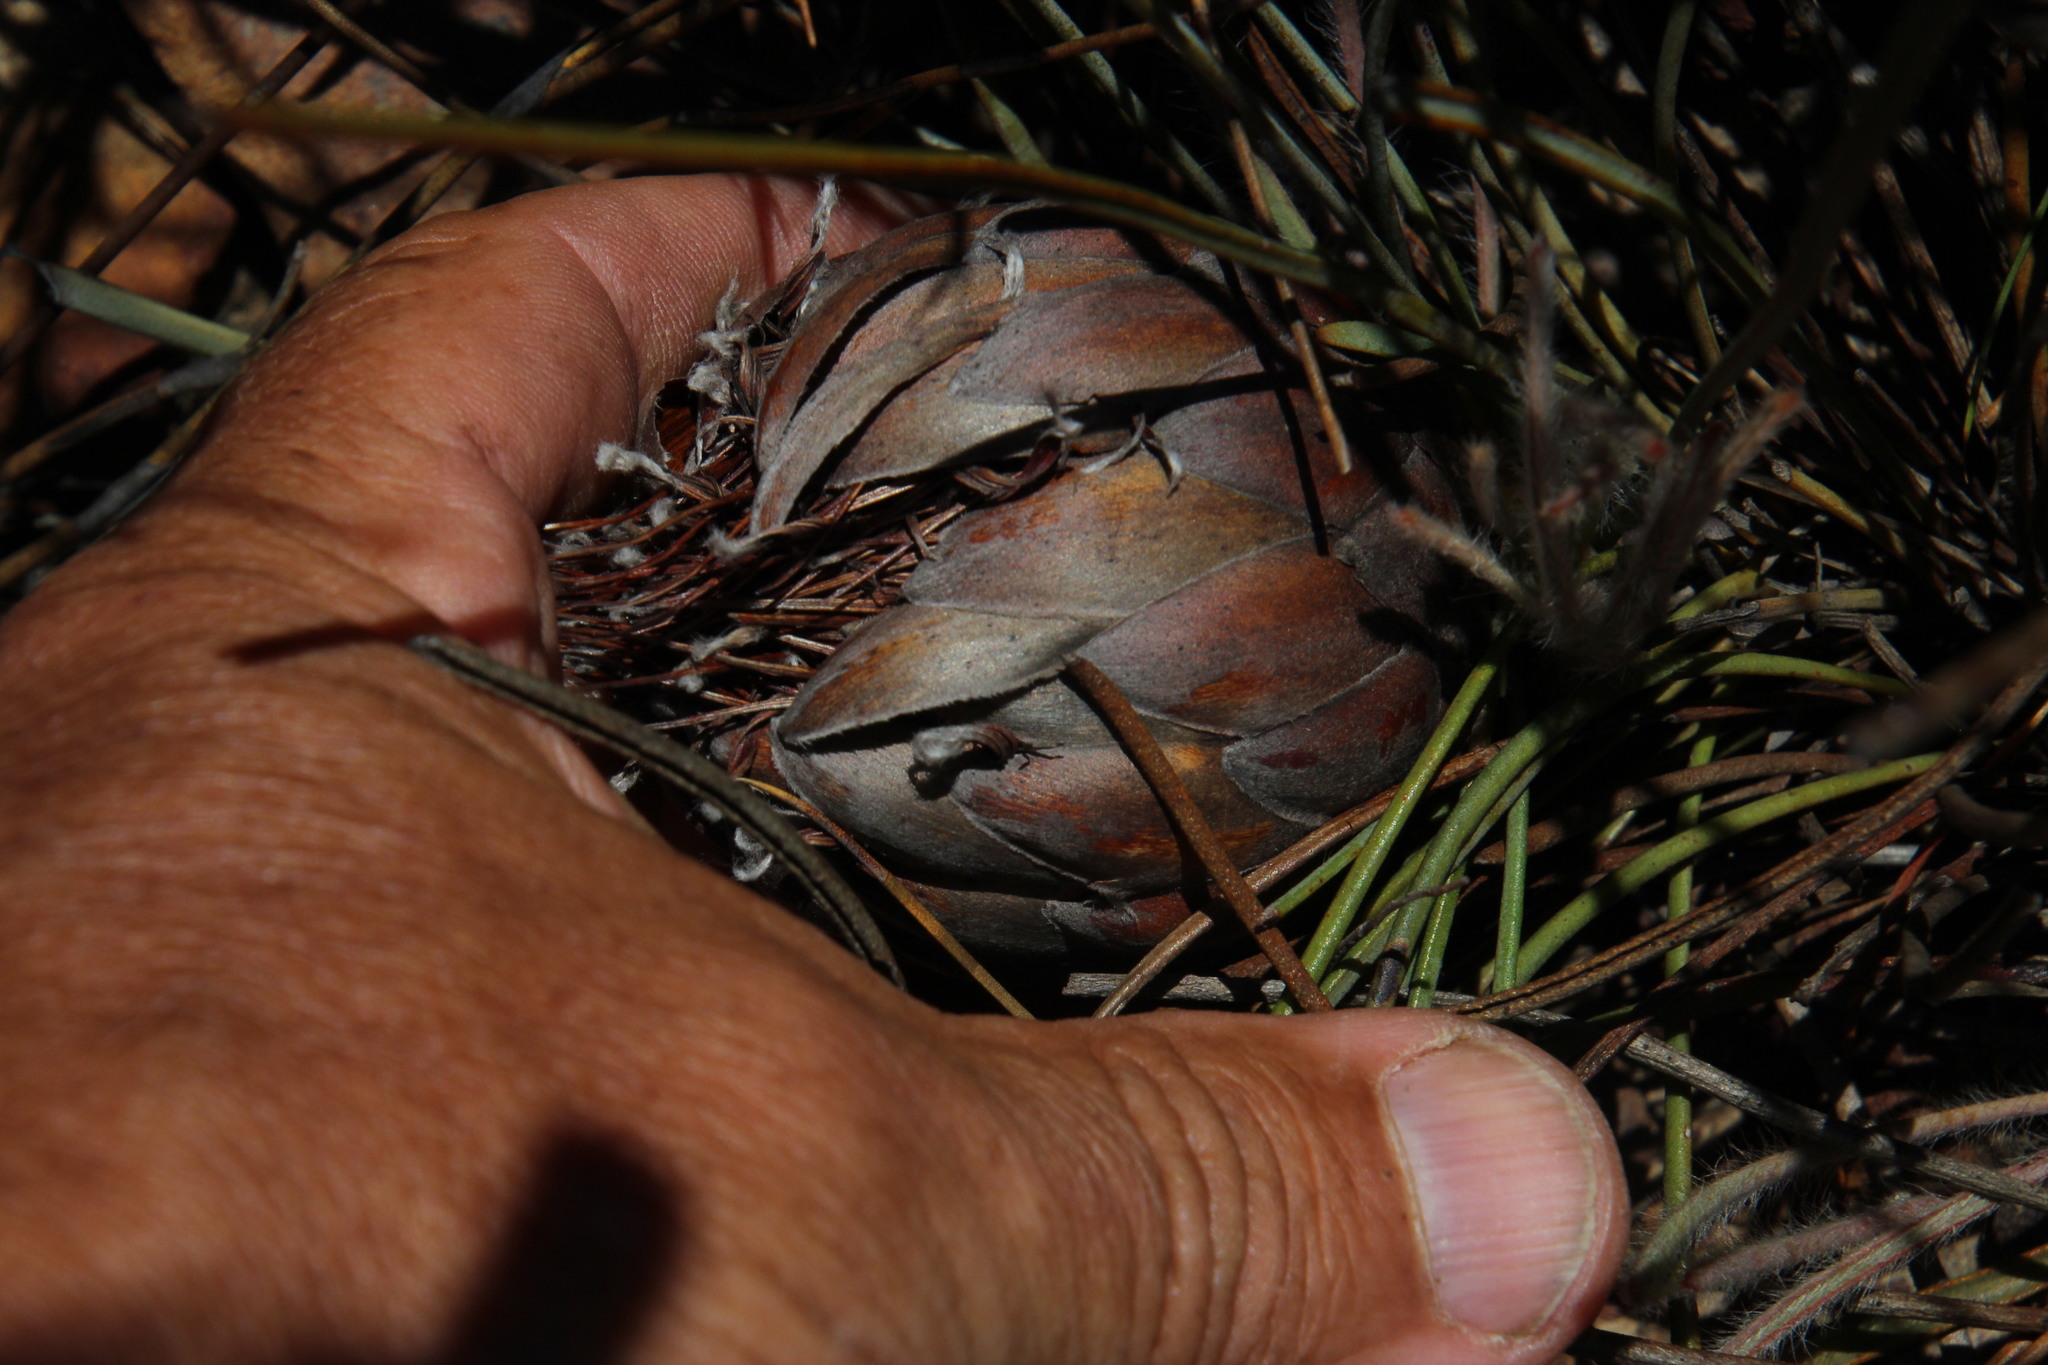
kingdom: Plantae
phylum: Tracheophyta
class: Magnoliopsida
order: Proteales
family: Proteaceae
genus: Protea
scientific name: Protea scorzonerifolia
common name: Channel-leaf sugarbush
